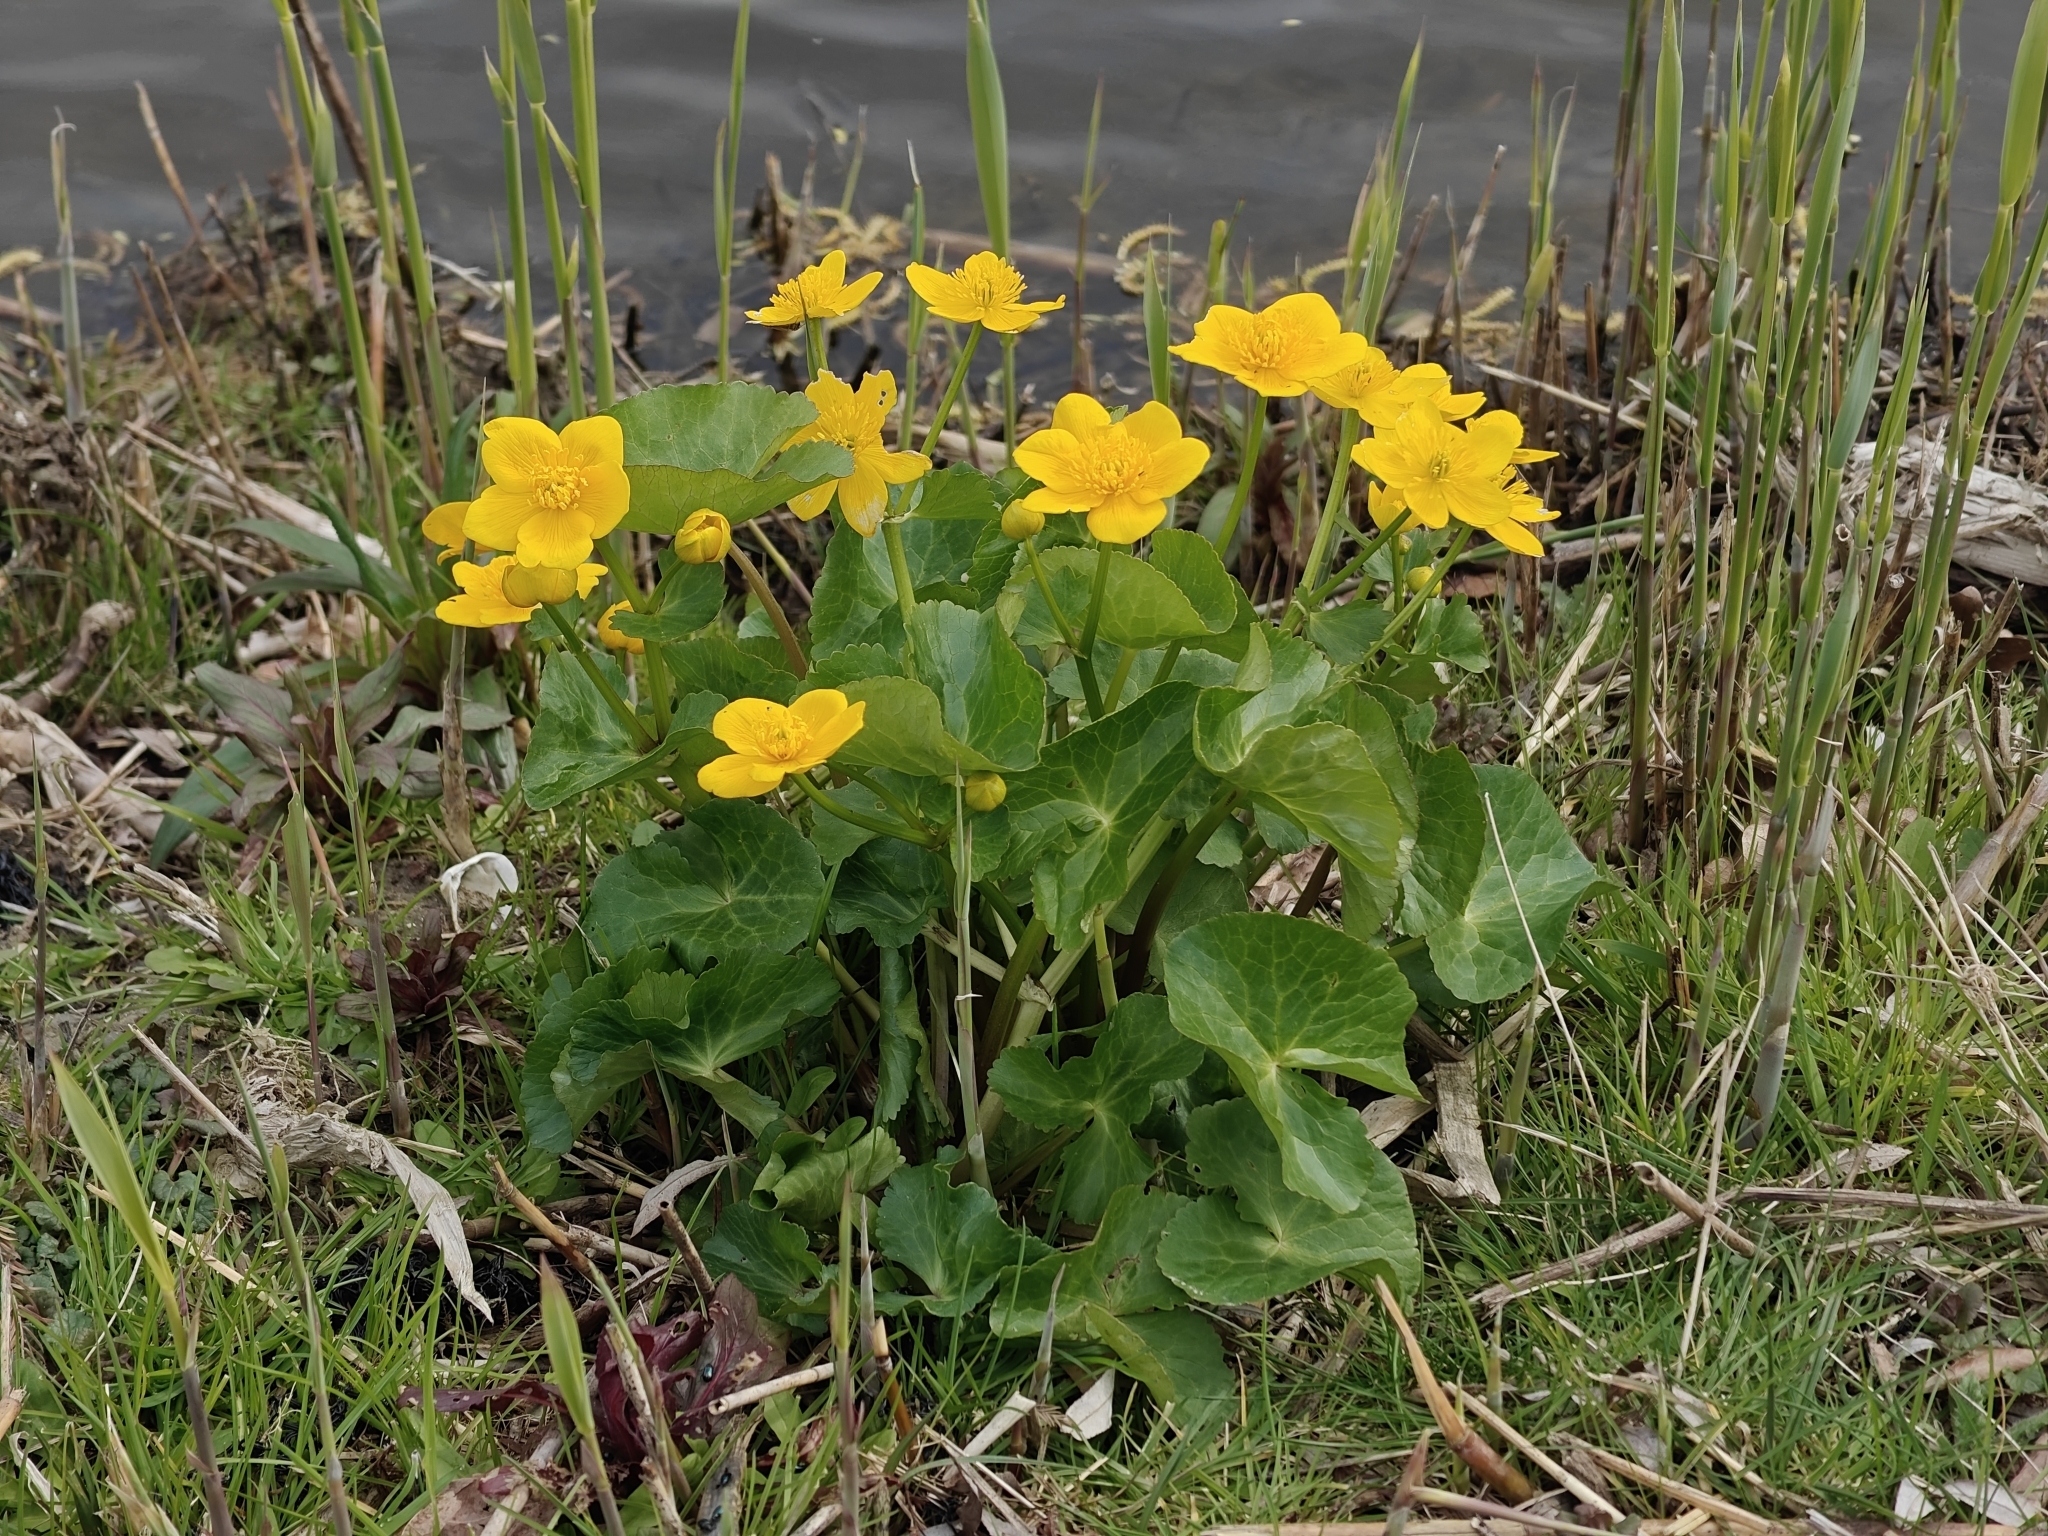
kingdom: Plantae
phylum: Tracheophyta
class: Magnoliopsida
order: Ranunculales
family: Ranunculaceae
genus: Caltha
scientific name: Caltha palustris
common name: Marsh marigold
